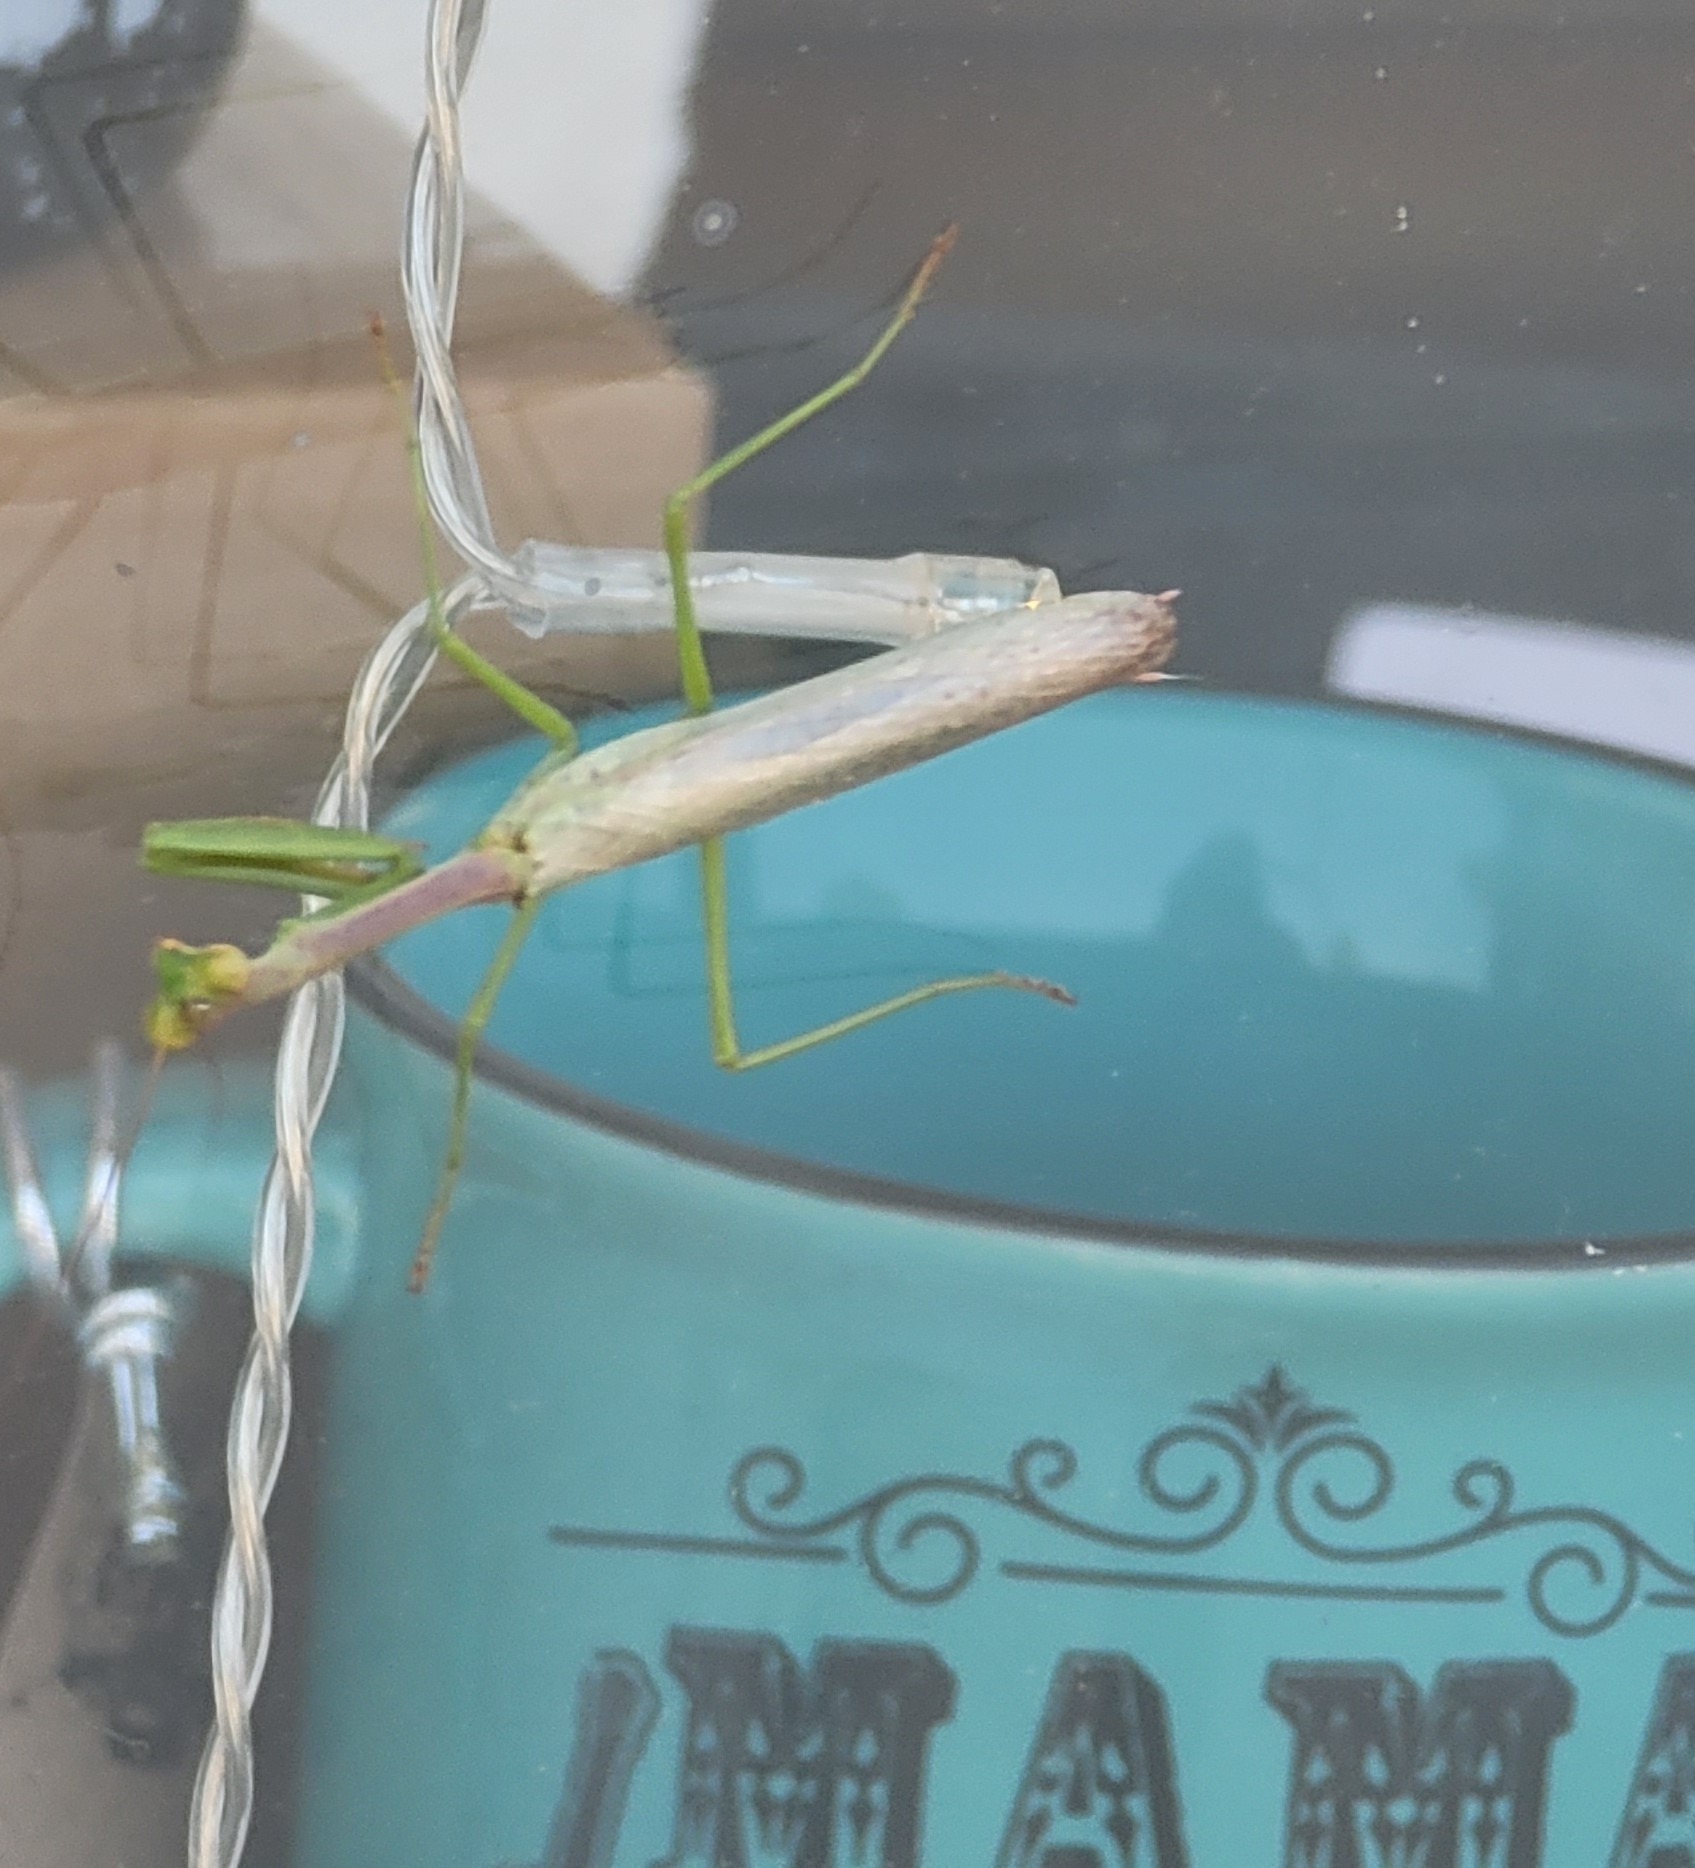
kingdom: Animalia
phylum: Arthropoda
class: Insecta
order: Mantodea
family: Mantidae
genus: Stagmomantis
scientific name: Stagmomantis carolina
